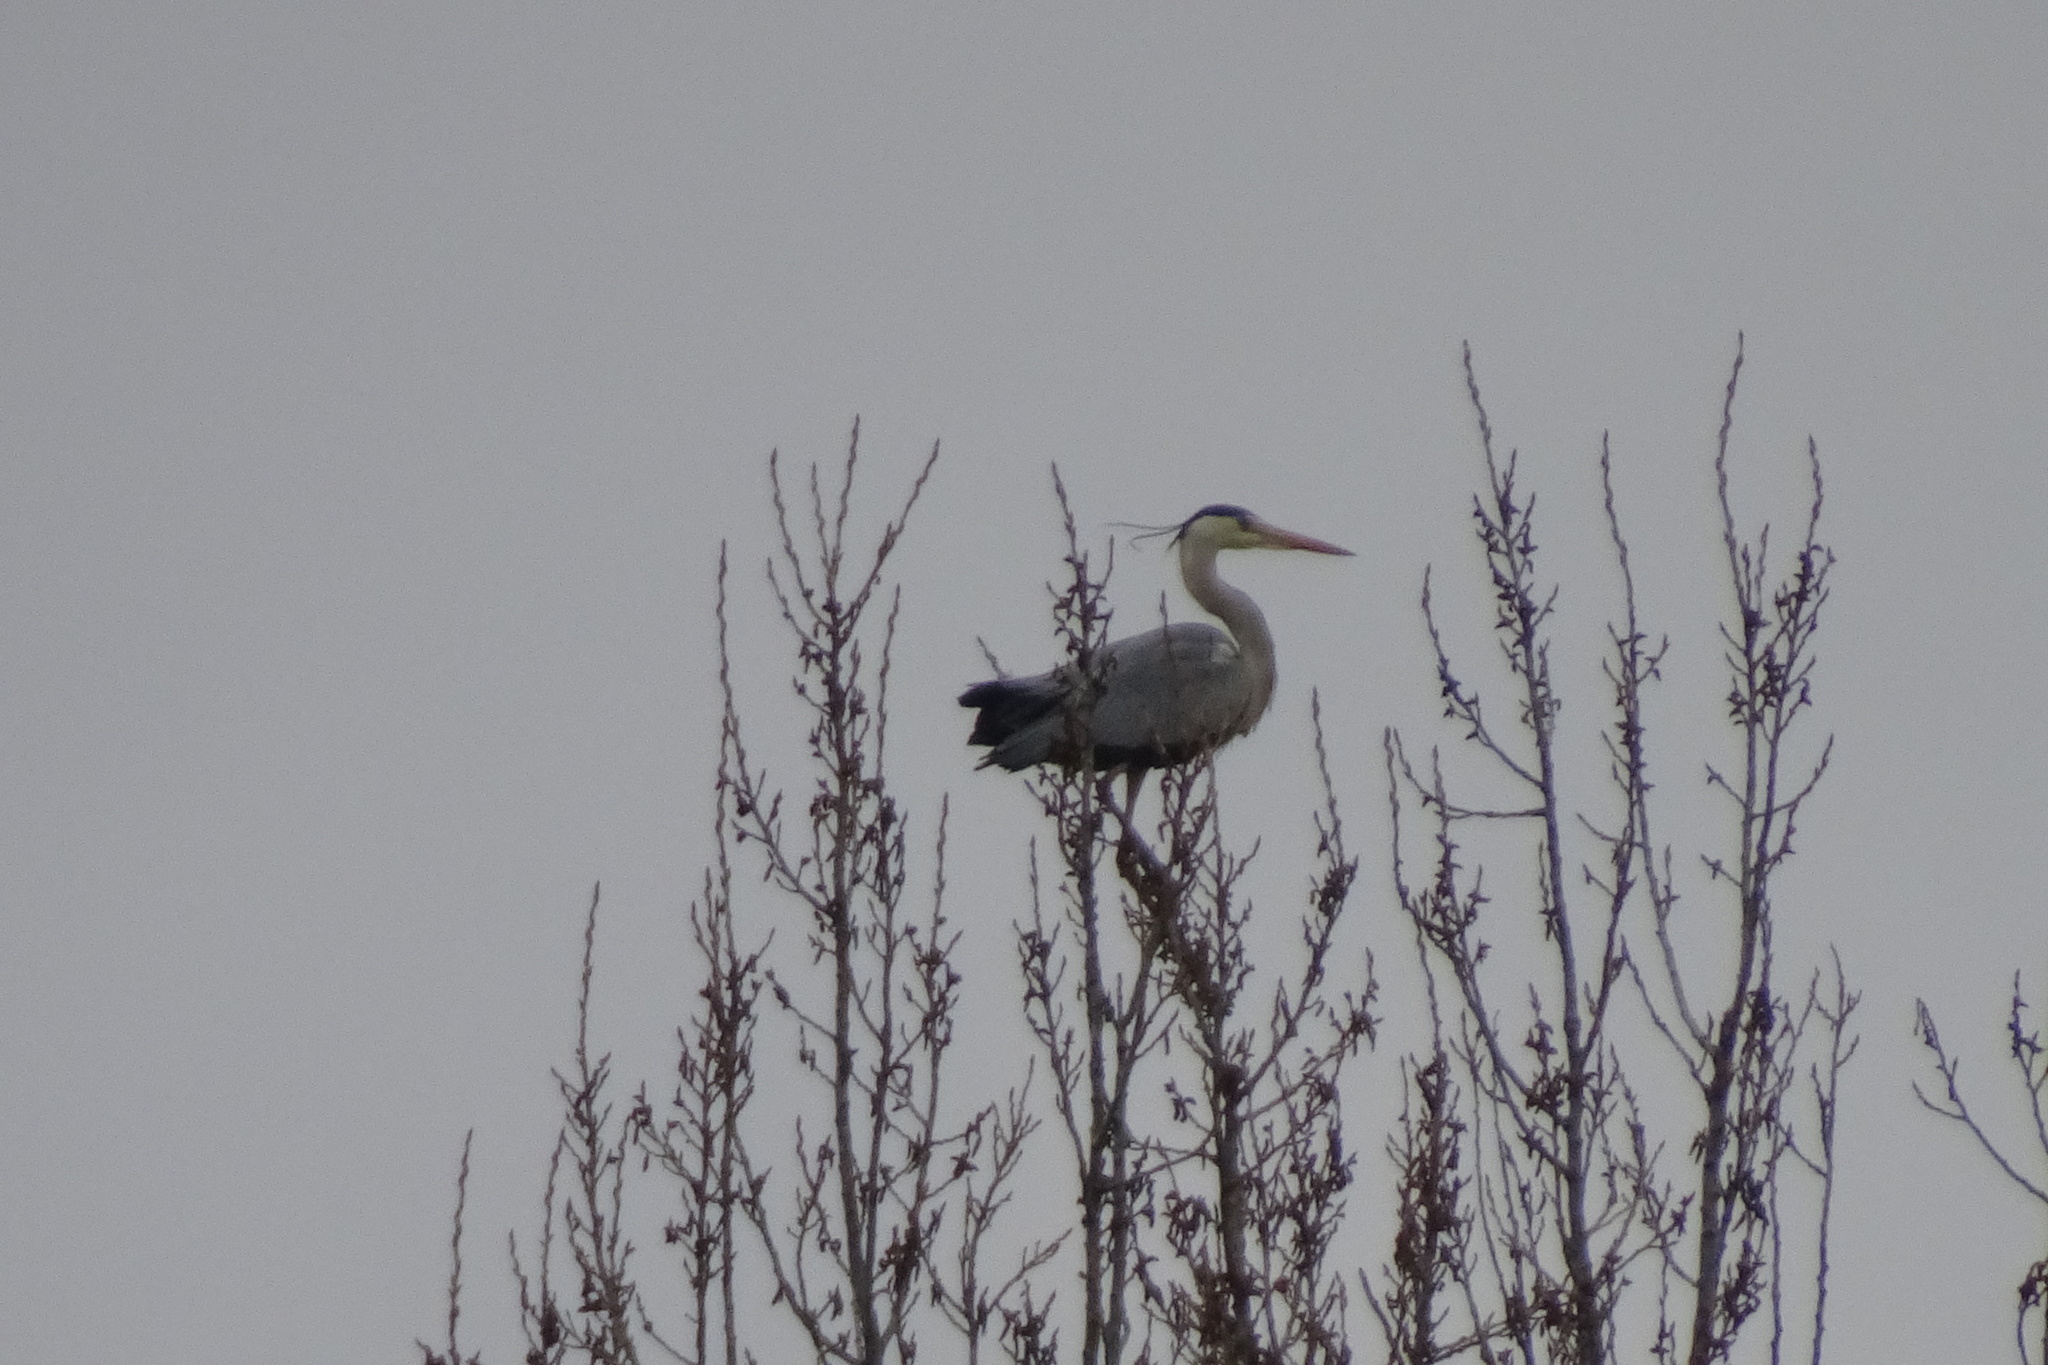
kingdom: Animalia
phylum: Chordata
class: Aves
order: Pelecaniformes
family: Ardeidae
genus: Ardea
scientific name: Ardea cinerea
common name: Grey heron
